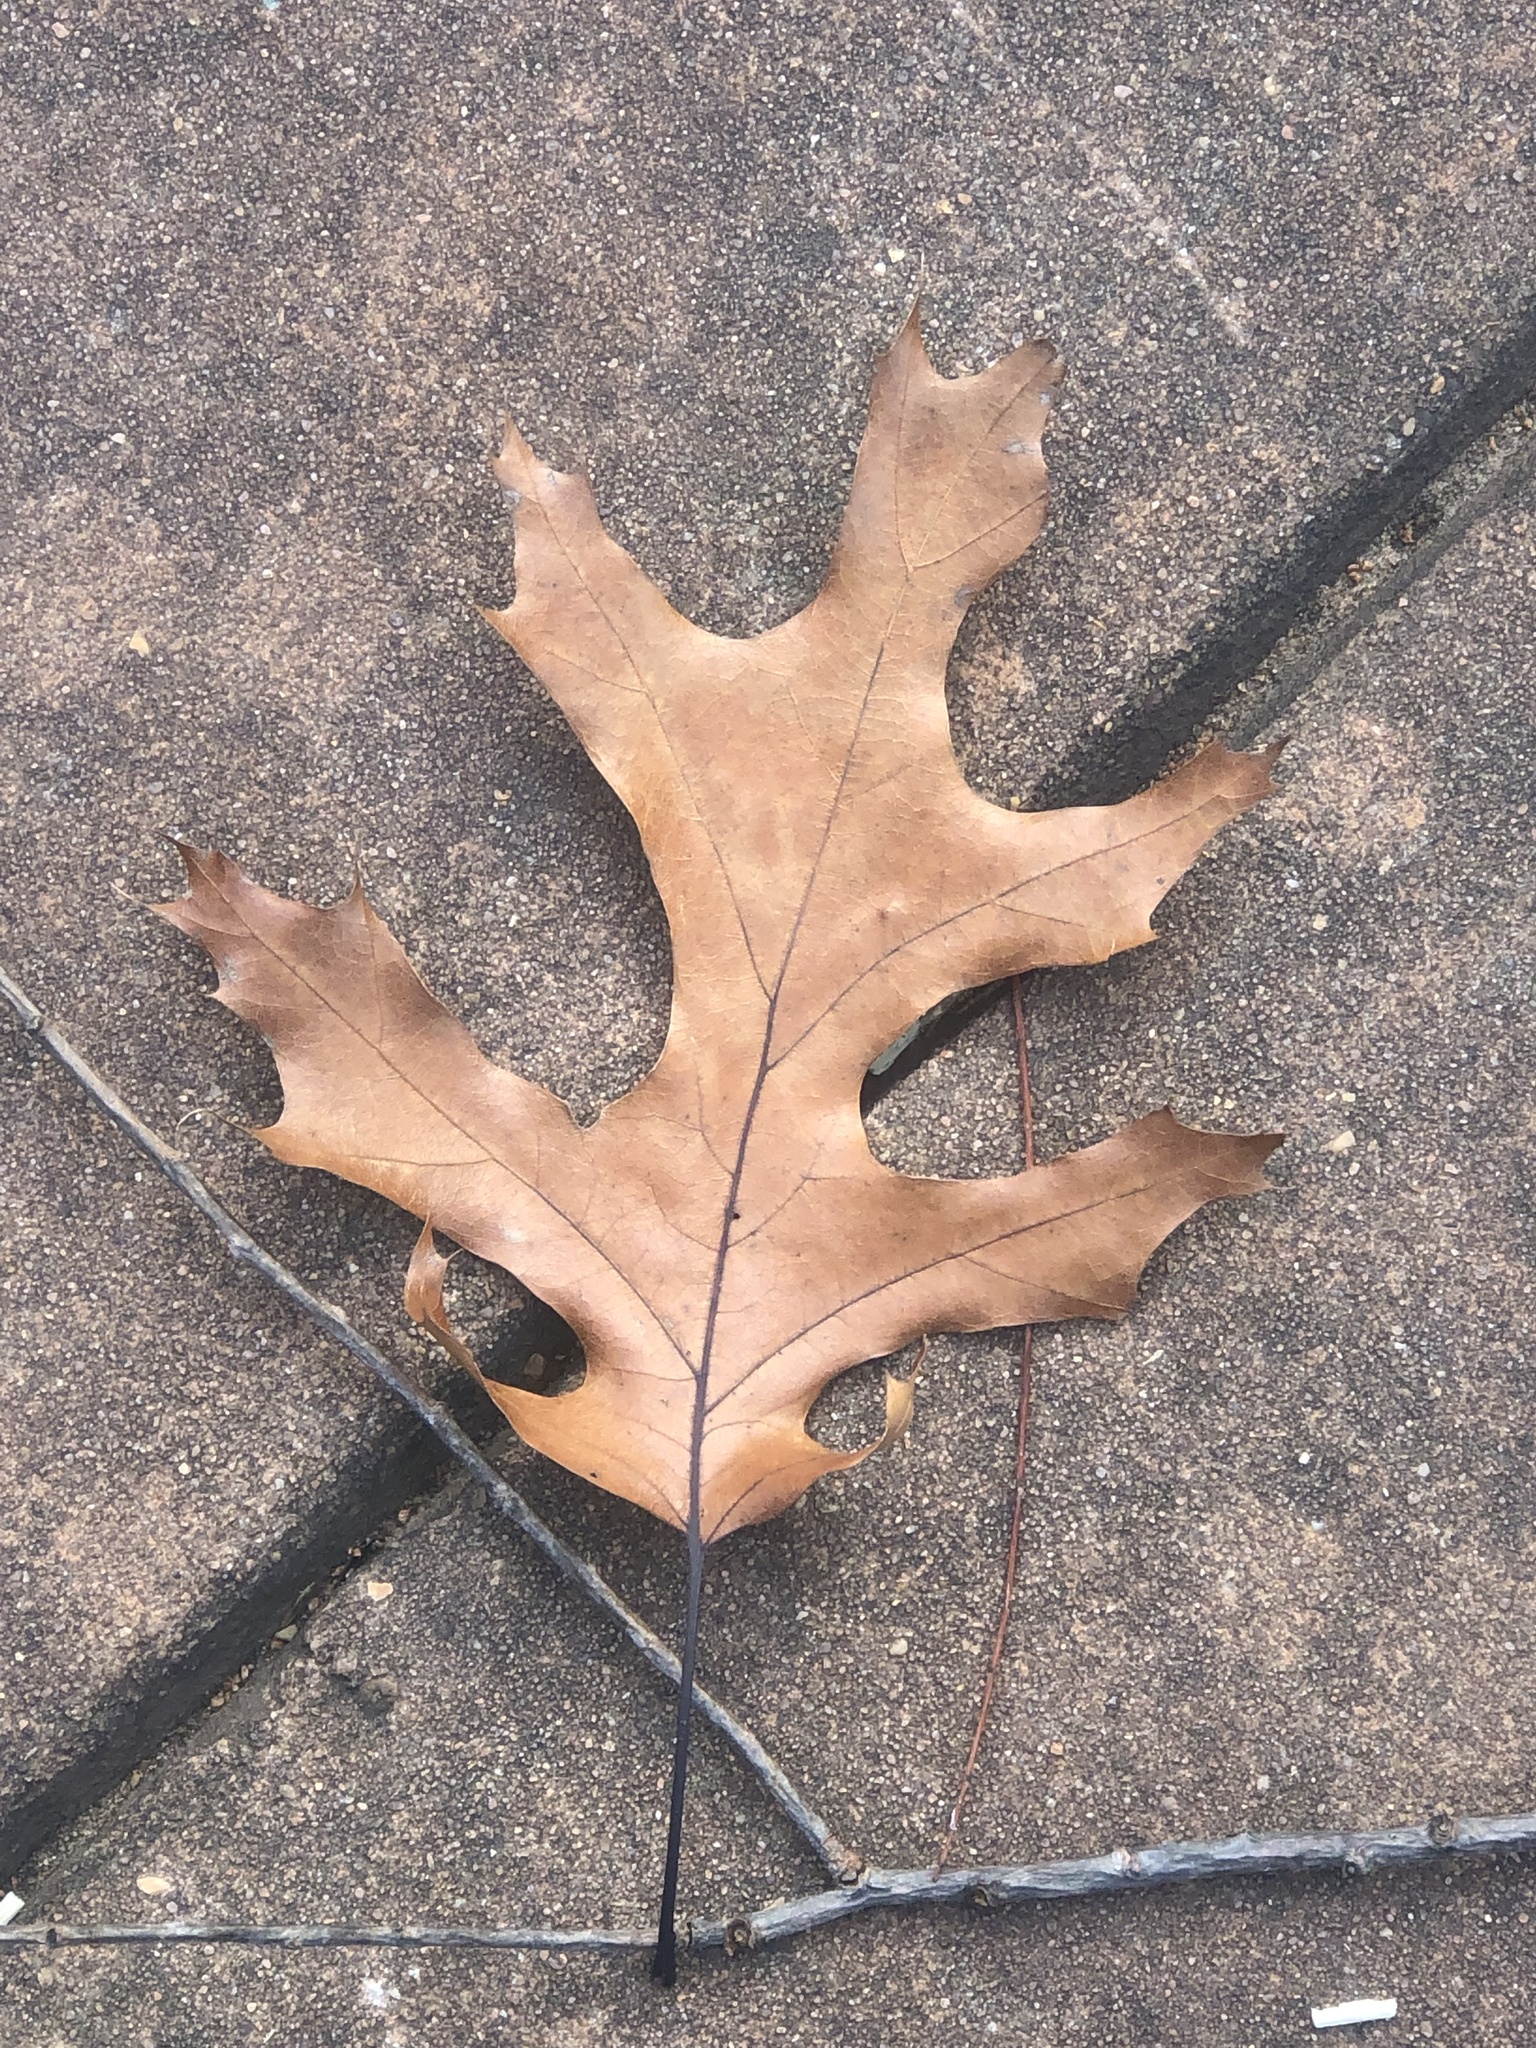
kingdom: Plantae
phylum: Tracheophyta
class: Magnoliopsida
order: Fagales
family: Fagaceae
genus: Quercus
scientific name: Quercus shumardii
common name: Shumard oak
